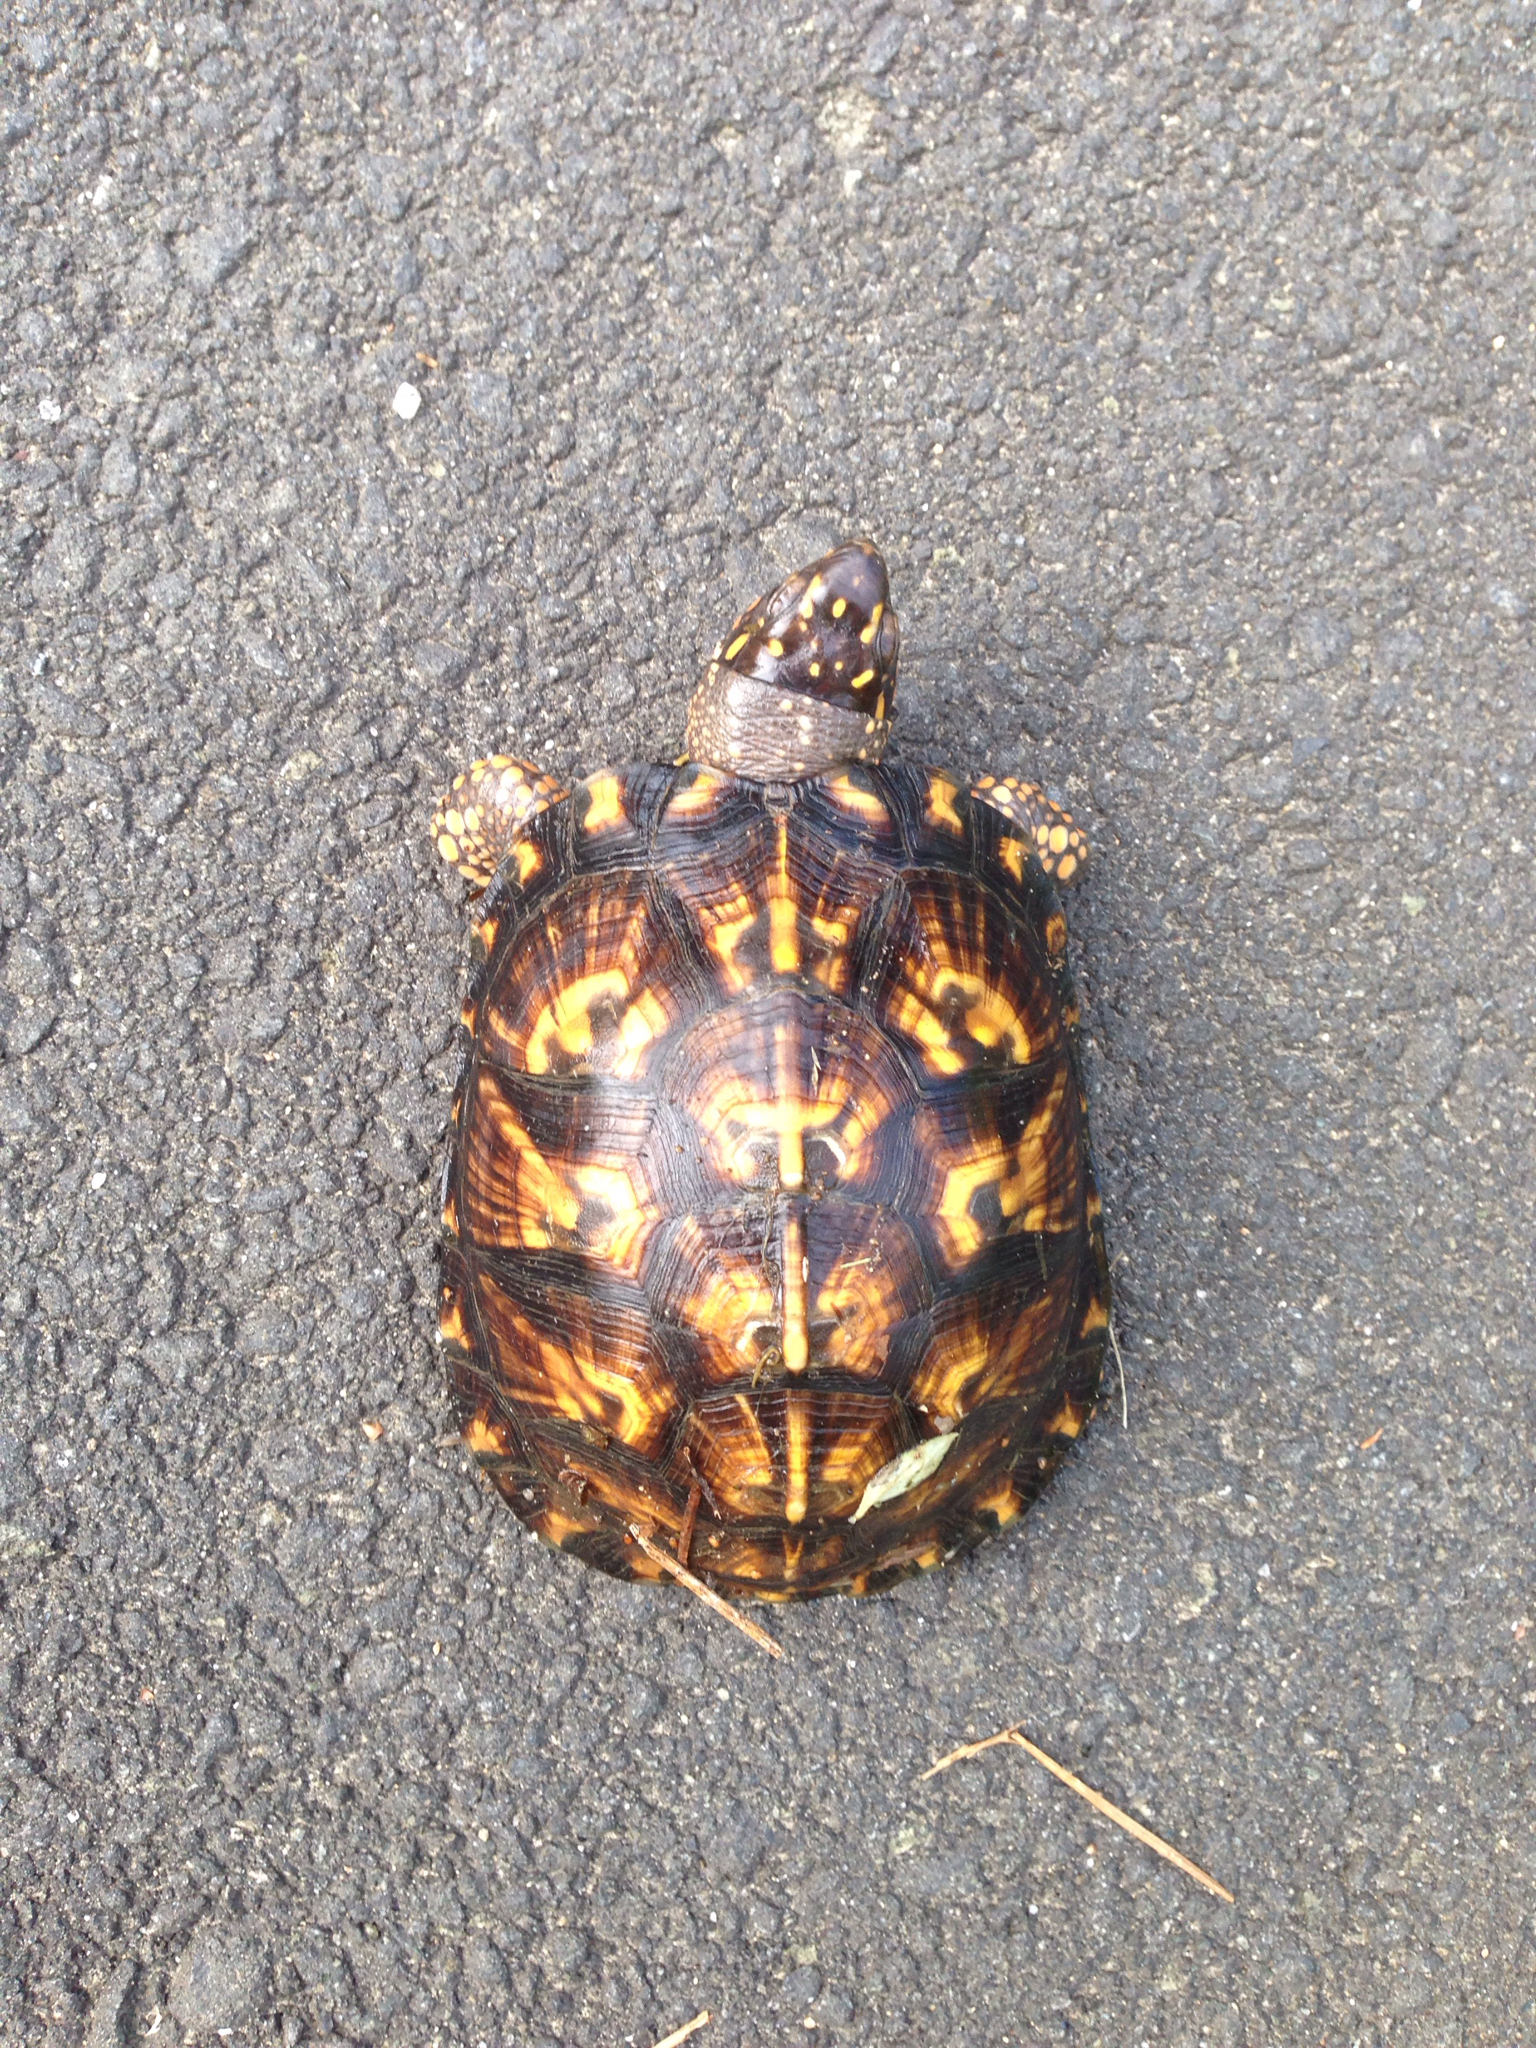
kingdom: Animalia
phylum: Chordata
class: Testudines
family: Emydidae
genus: Terrapene
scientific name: Terrapene carolina
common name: Common box turtle
